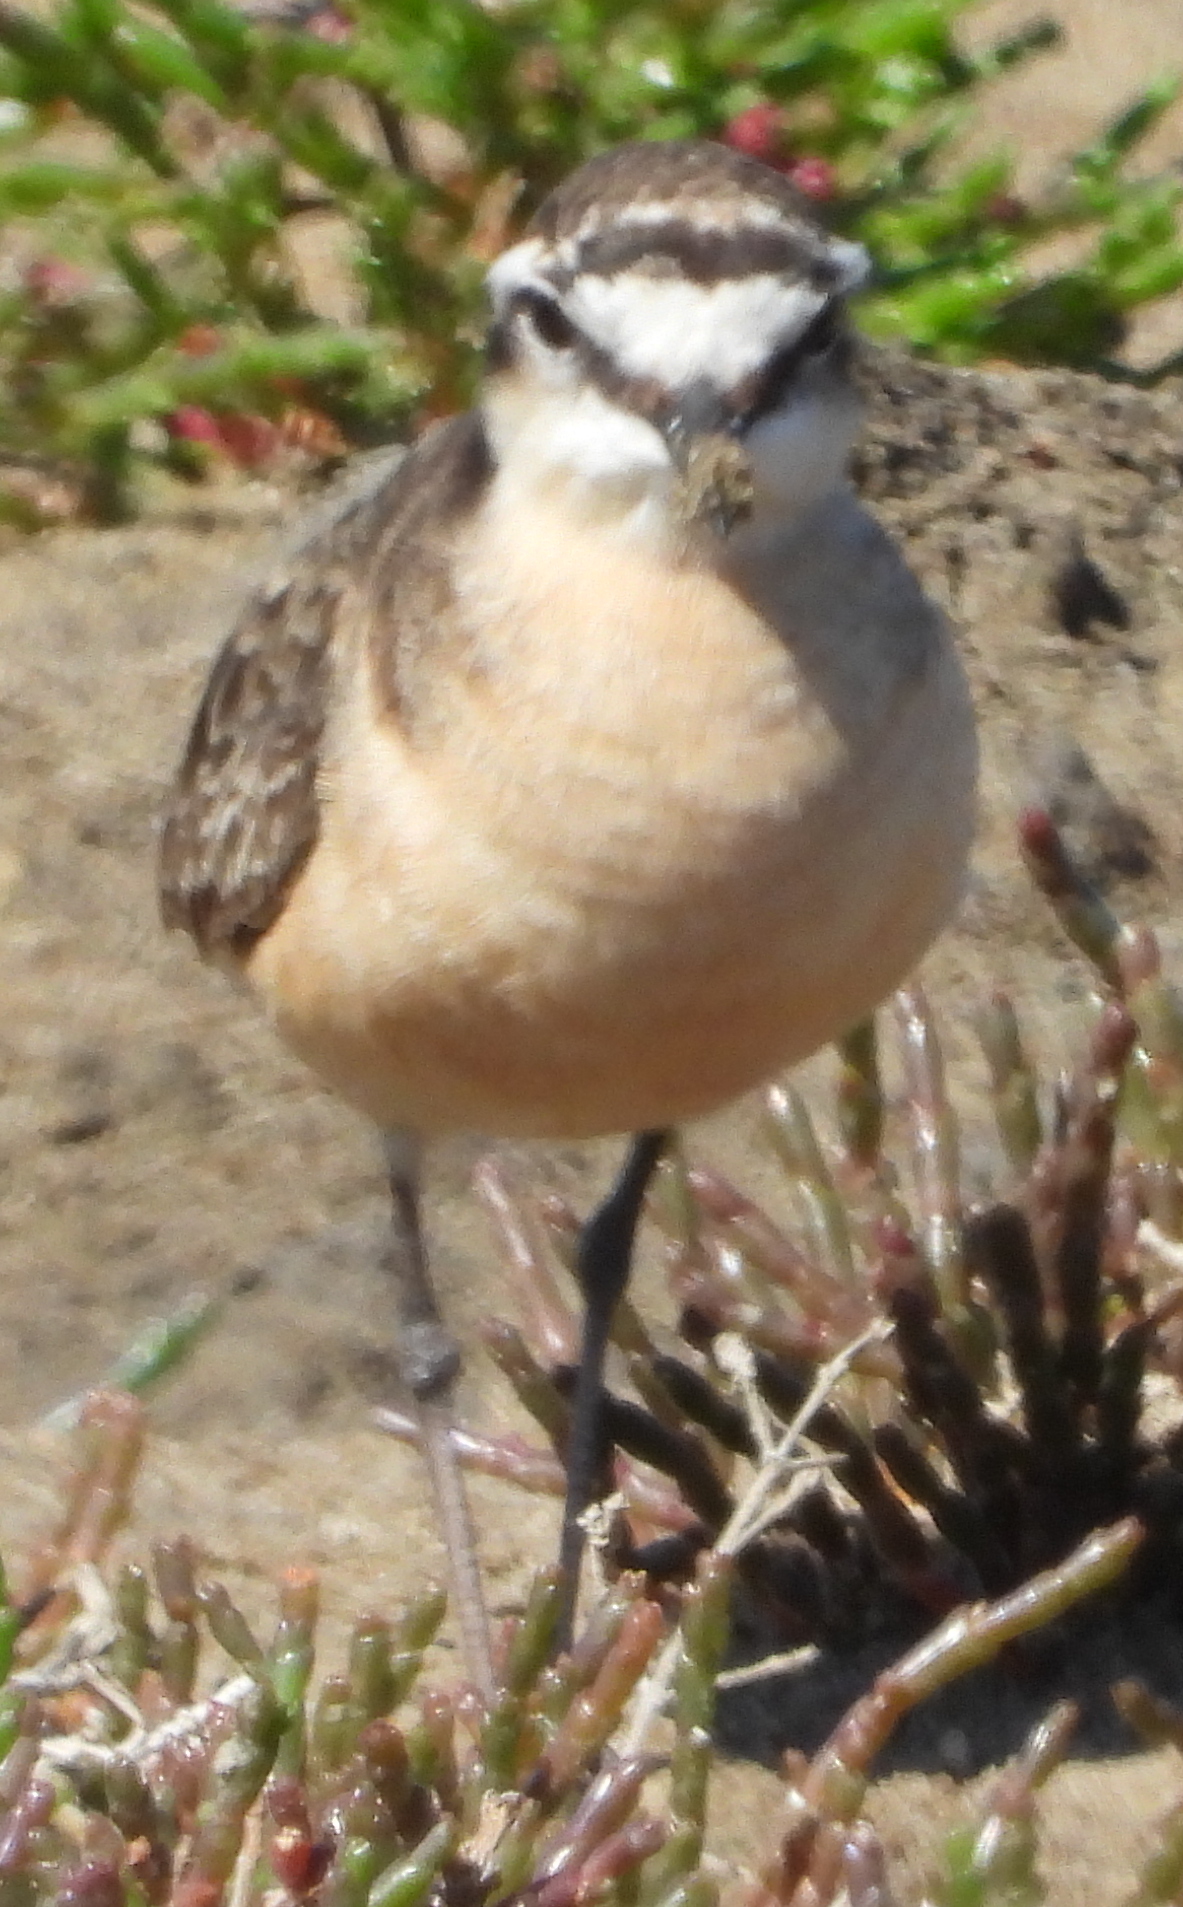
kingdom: Animalia
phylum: Chordata
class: Aves
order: Charadriiformes
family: Charadriidae
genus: Anarhynchus
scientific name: Anarhynchus
